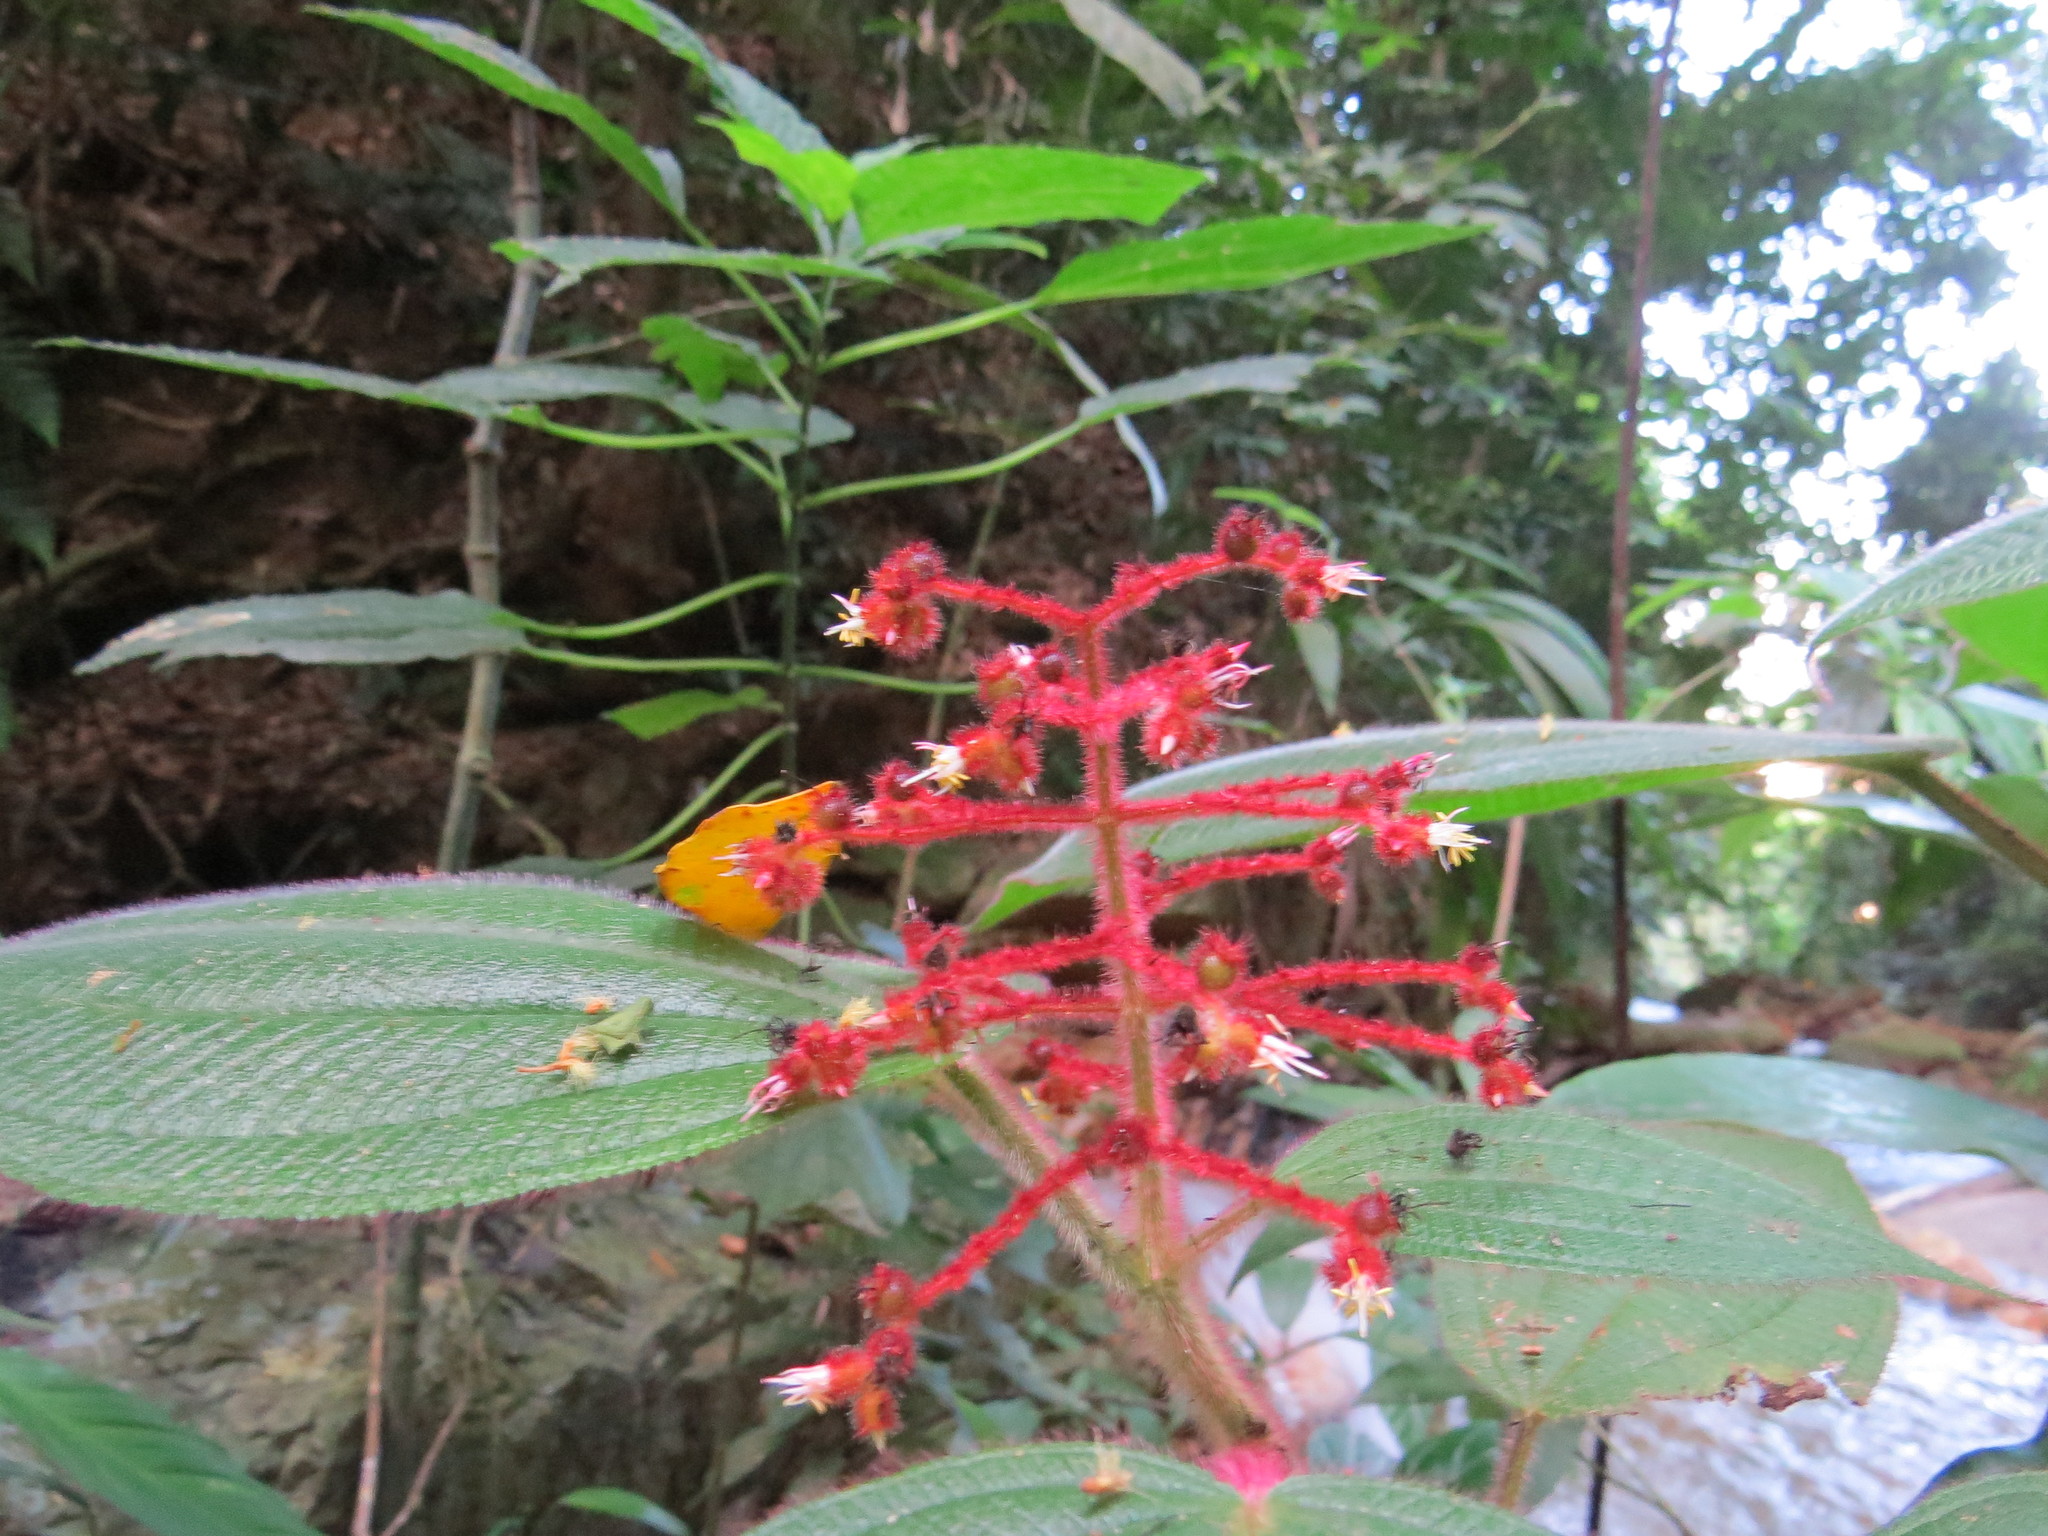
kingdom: Plantae
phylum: Tracheophyta
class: Magnoliopsida
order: Myrtales
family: Melastomataceae
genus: Miconia
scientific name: Miconia reversa
